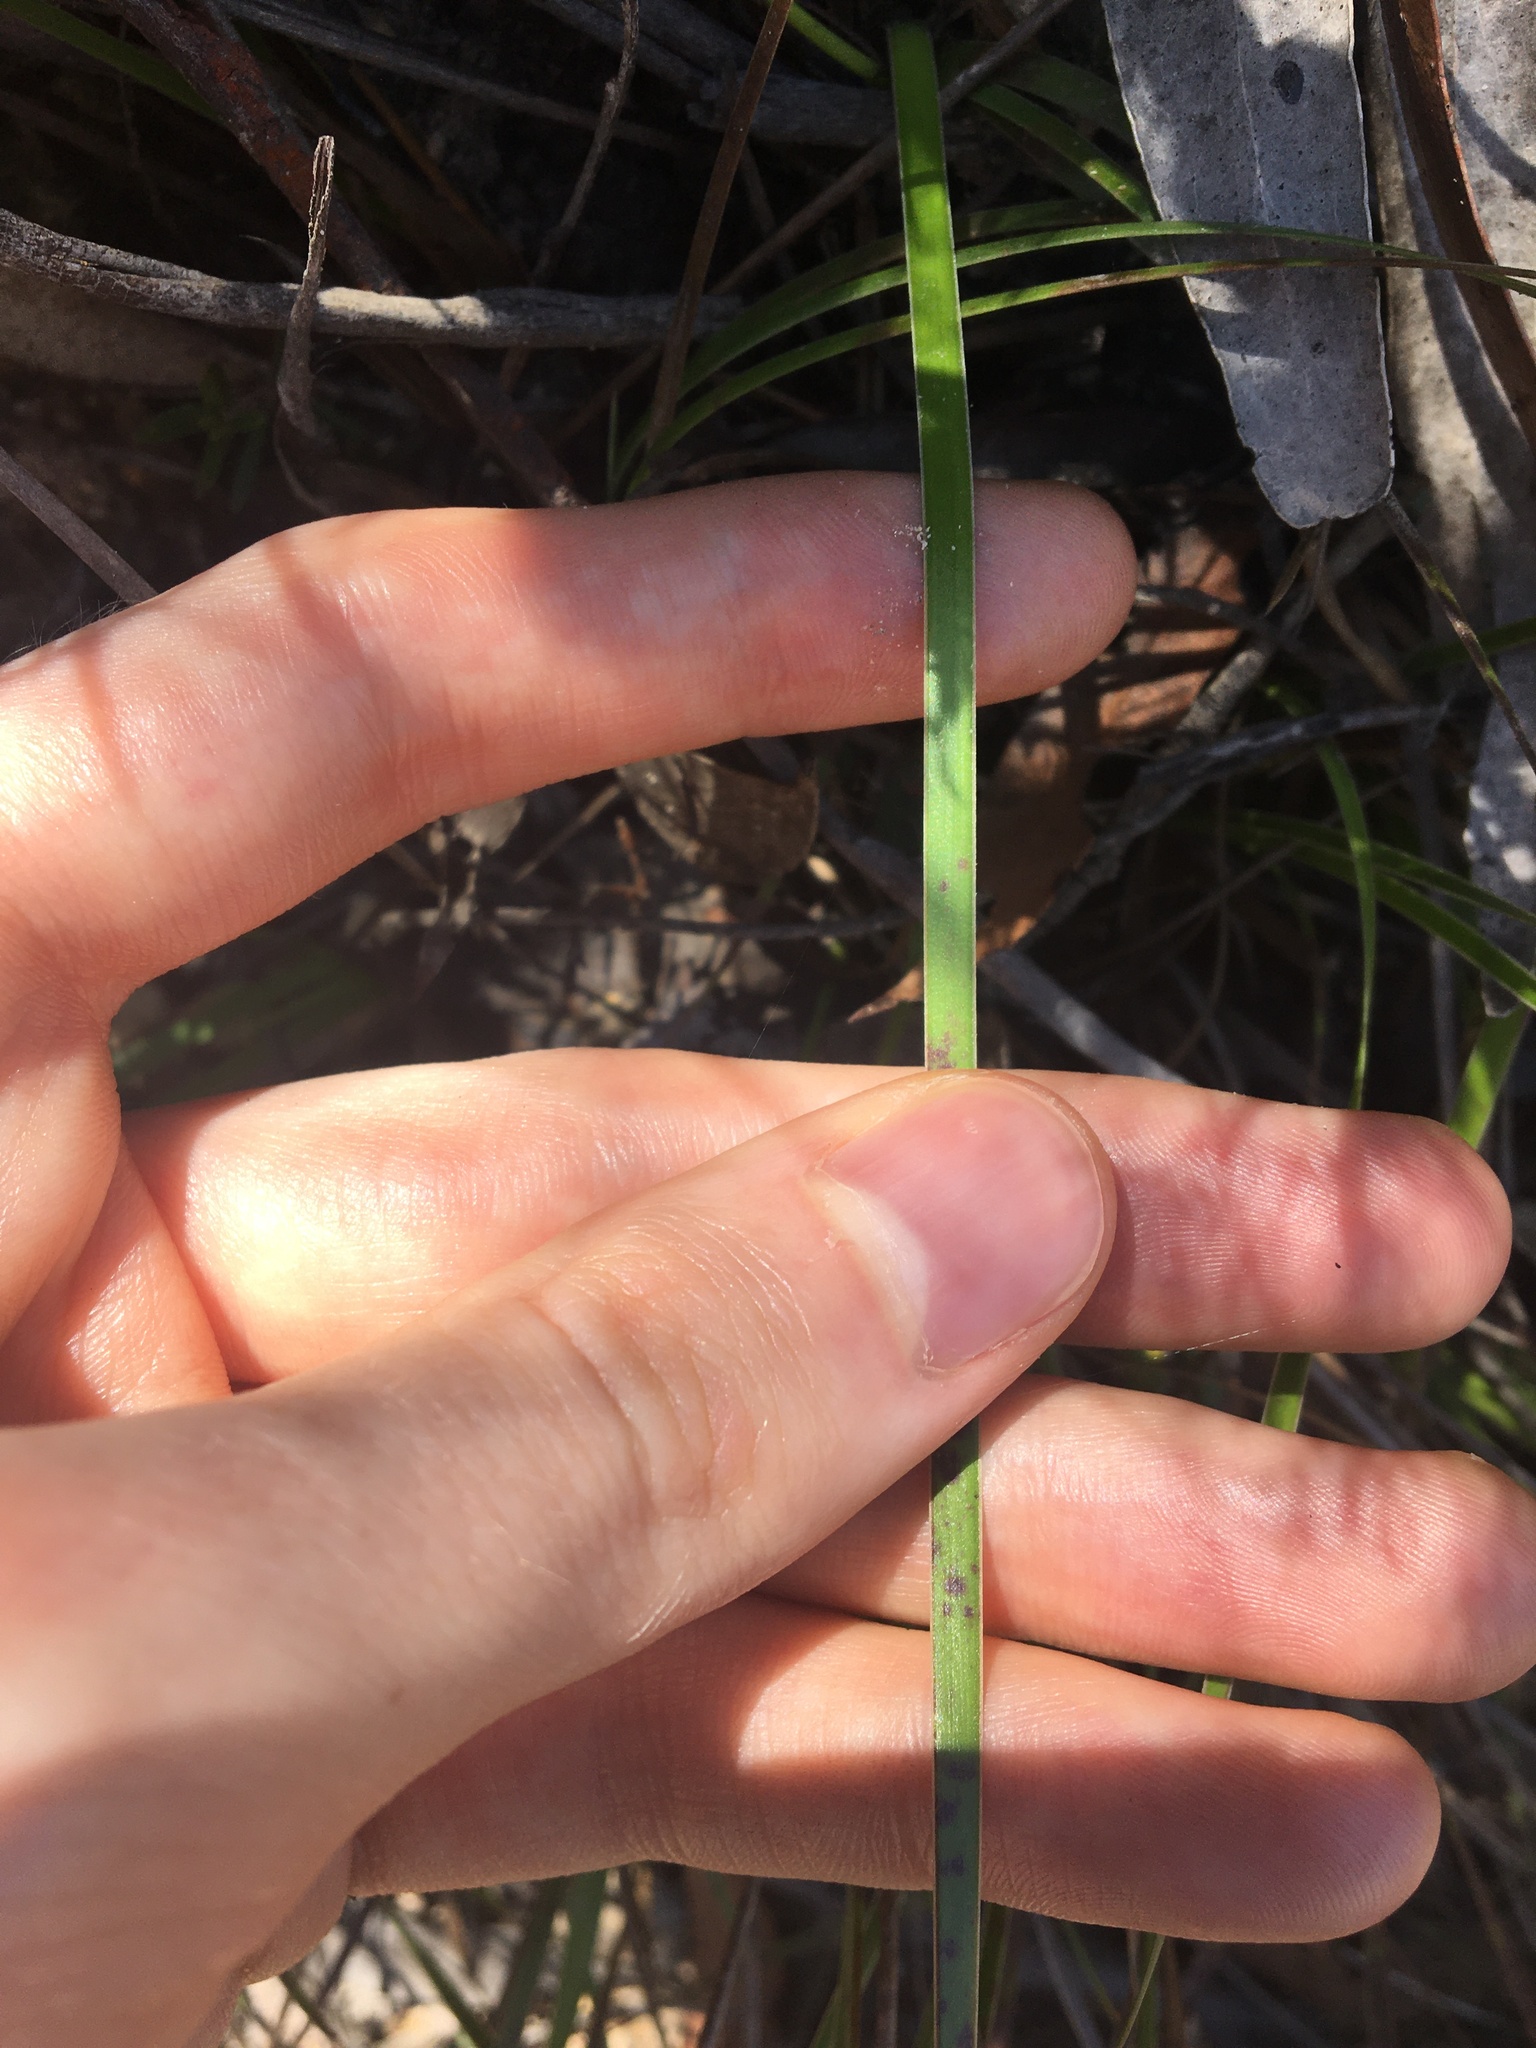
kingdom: Plantae
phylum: Tracheophyta
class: Liliopsida
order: Poales
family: Xyridaceae
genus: Xyris
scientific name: Xyris gracilis
